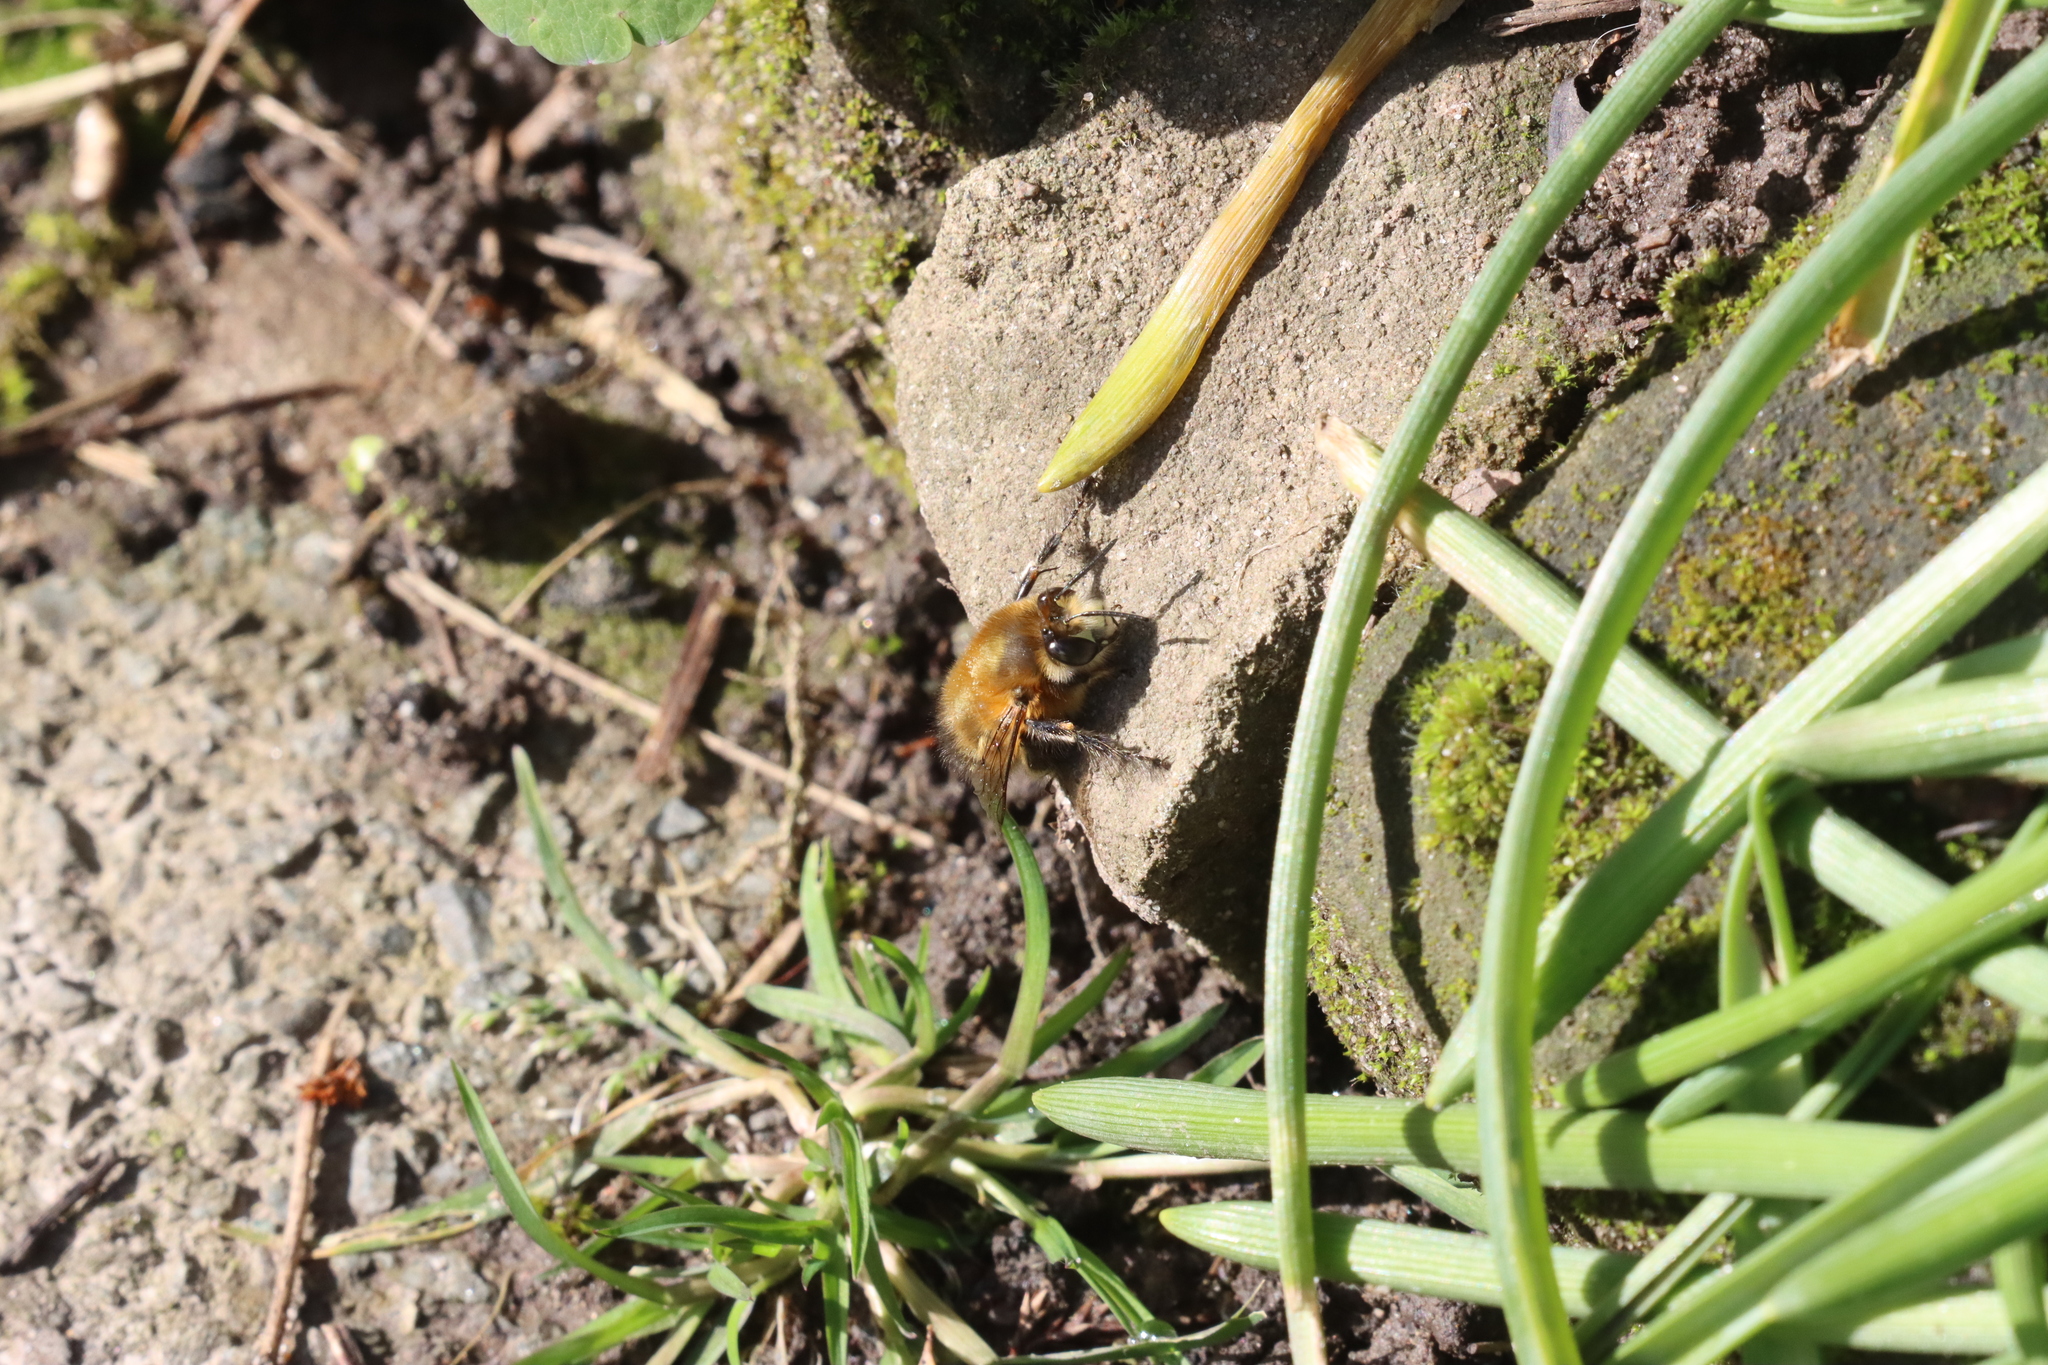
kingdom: Animalia
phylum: Arthropoda
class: Insecta
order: Hymenoptera
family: Apidae
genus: Anthophora
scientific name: Anthophora plumipes
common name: Hairy-footed flower bee
